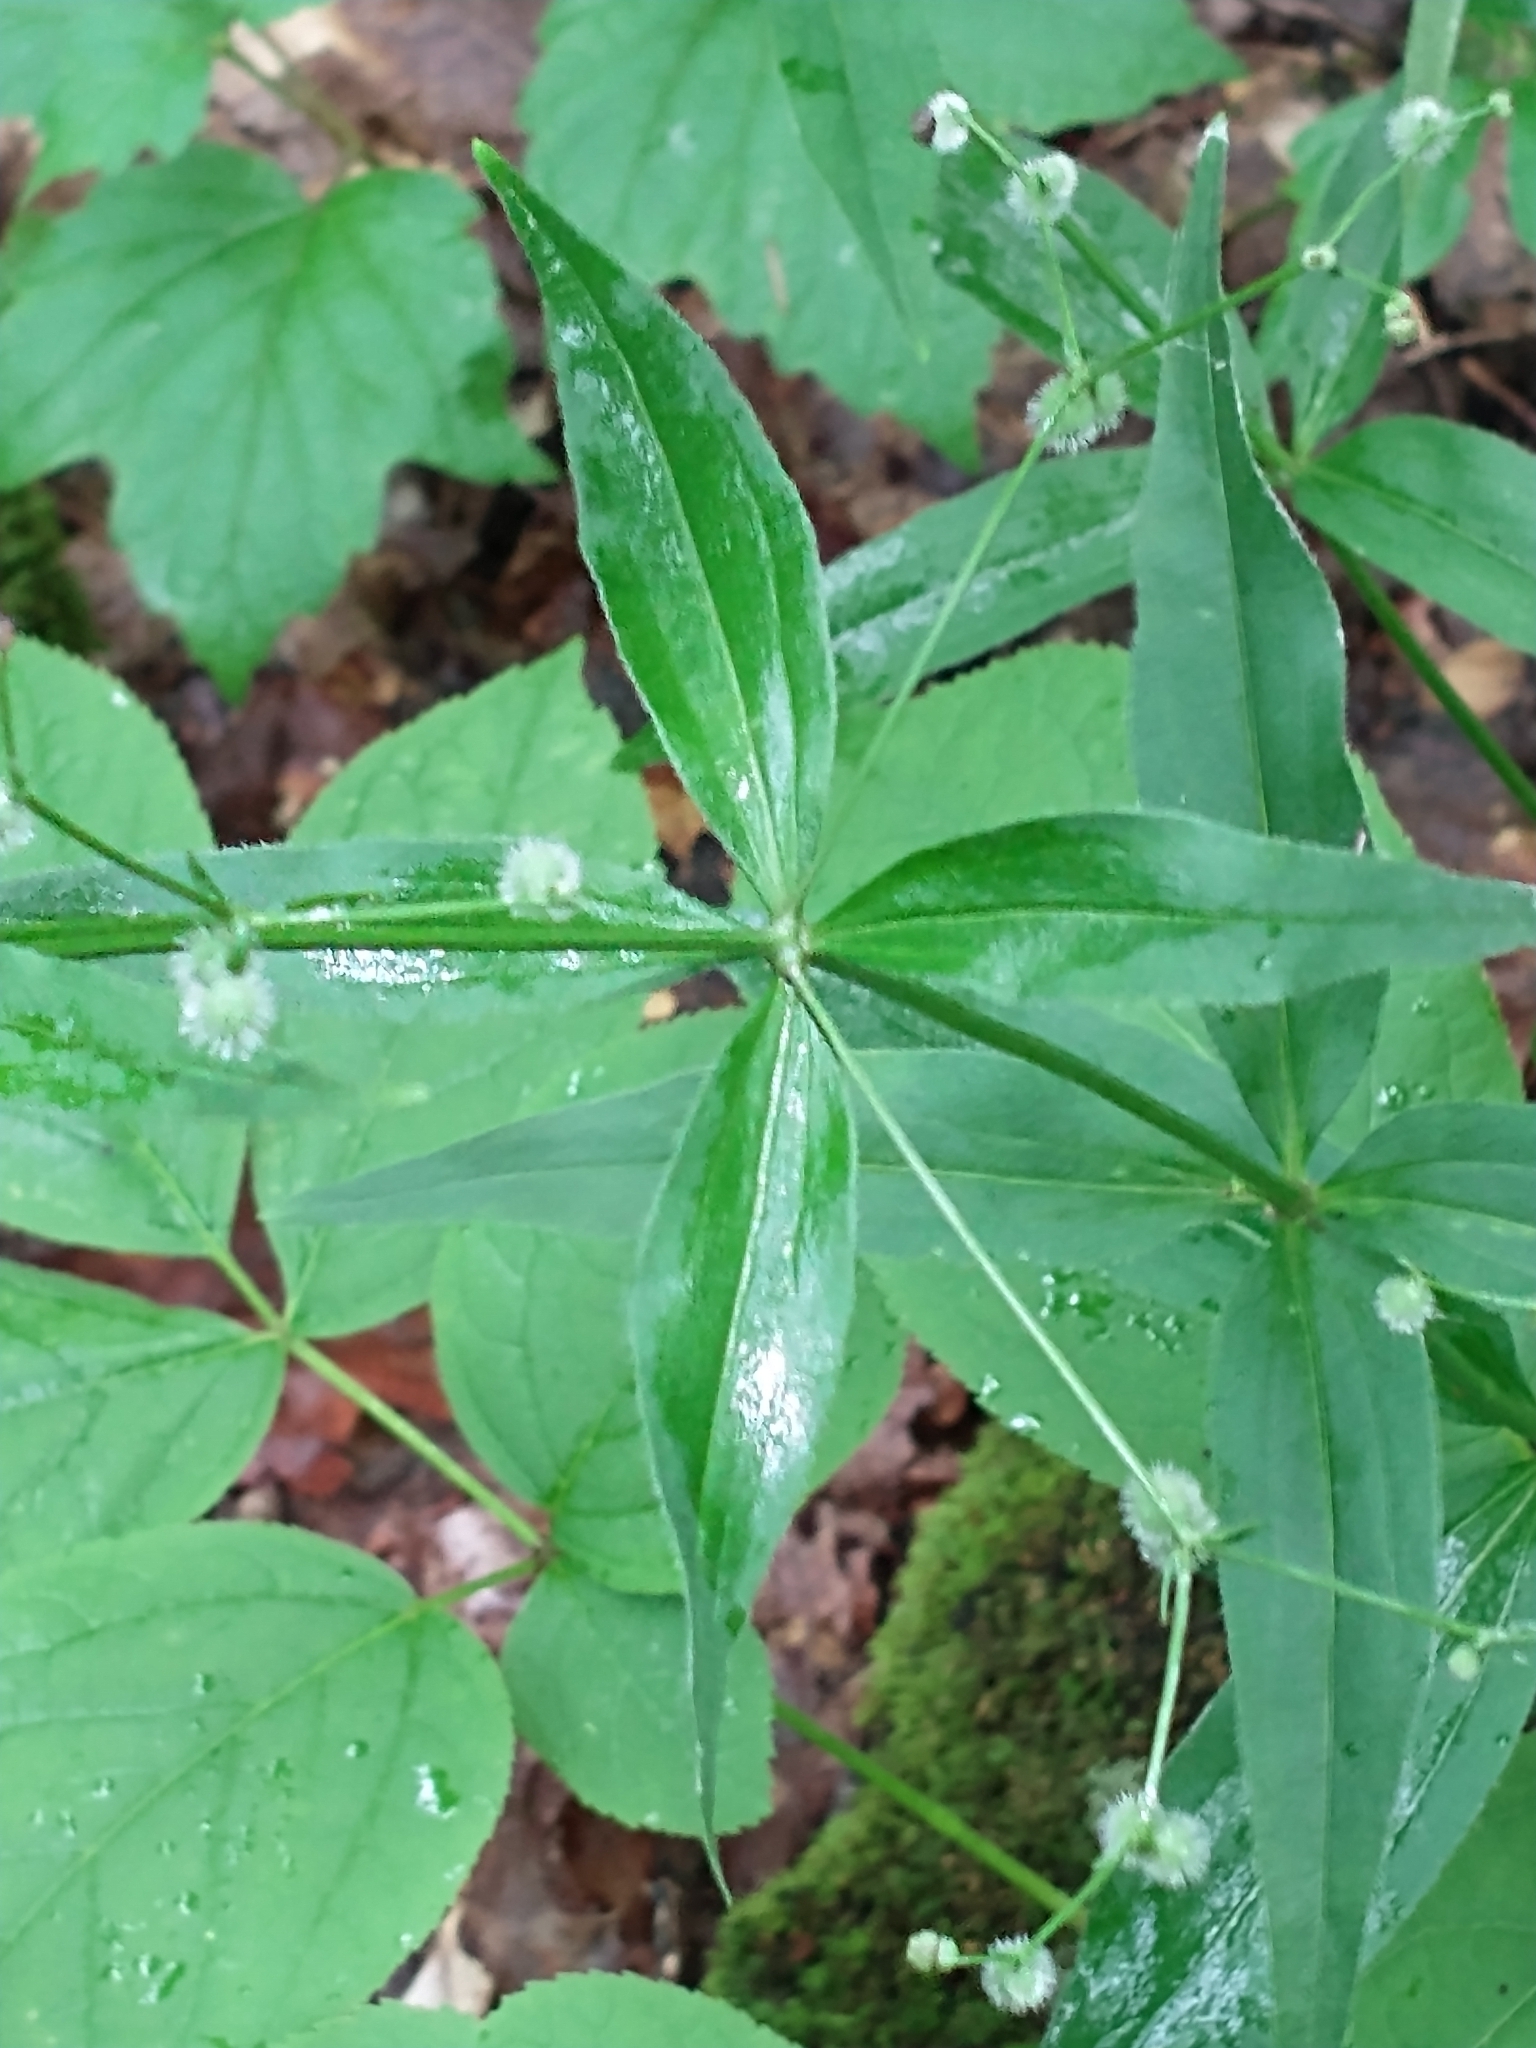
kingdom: Plantae
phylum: Tracheophyta
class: Magnoliopsida
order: Gentianales
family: Rubiaceae
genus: Galium
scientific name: Galium lanceolatum
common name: Lance-leaved wild licorice
